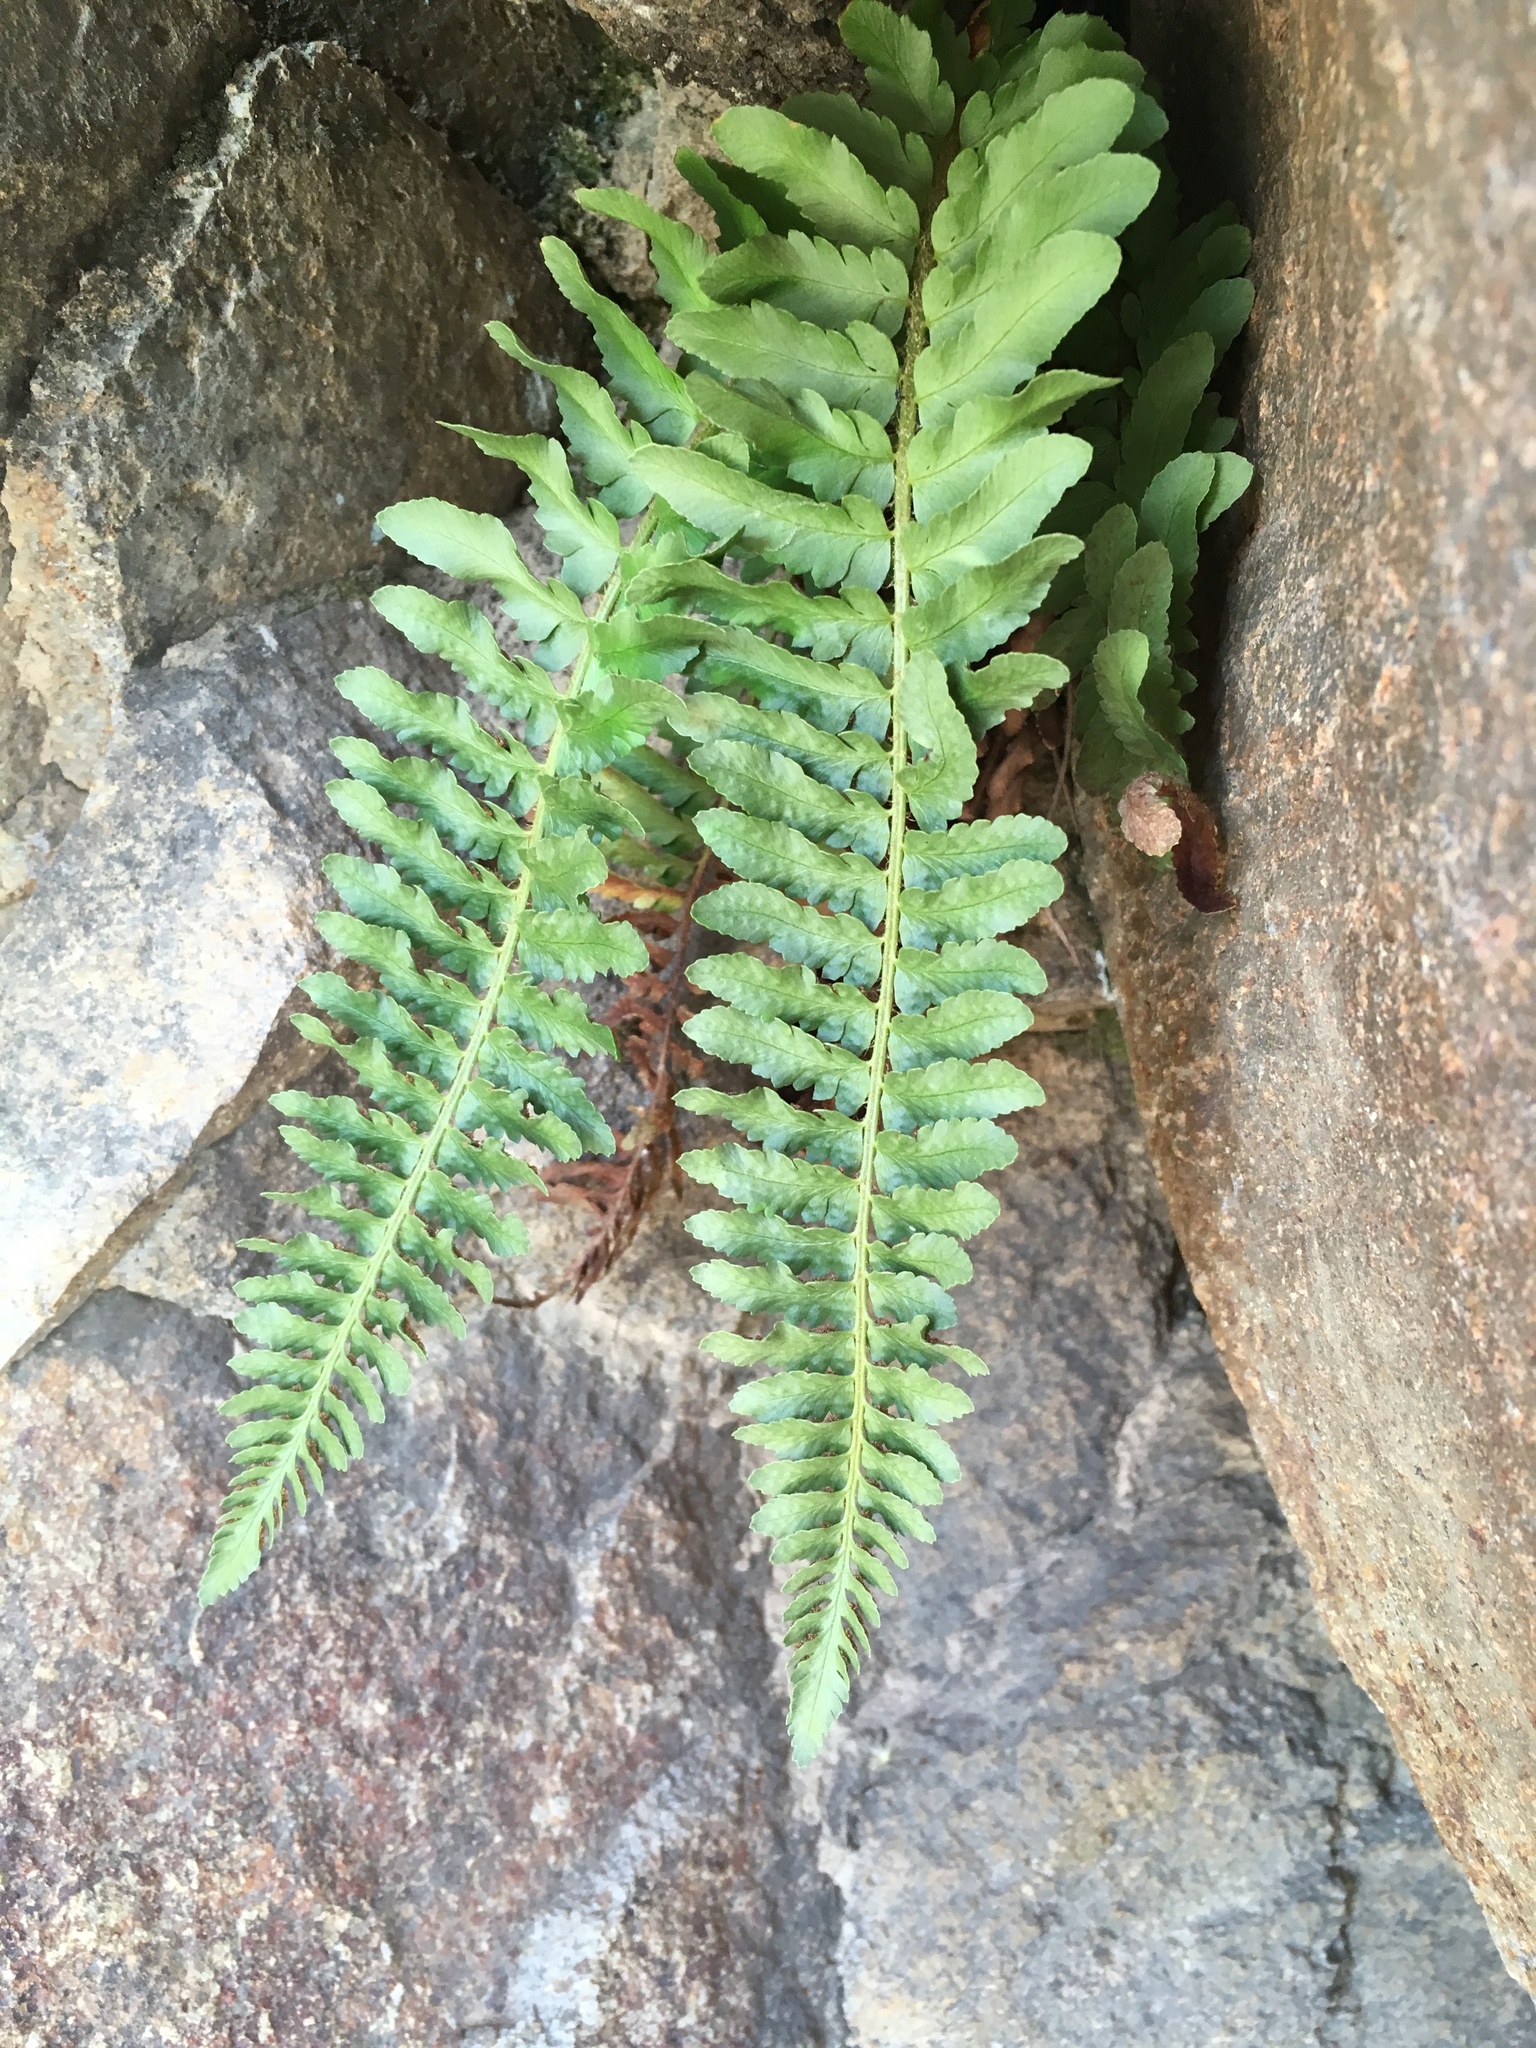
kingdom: Plantae
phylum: Tracheophyta
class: Polypodiopsida
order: Polypodiales
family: Dryopteridaceae
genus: Polystichum
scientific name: Polystichum scopulinum
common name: Eaton's shield fern
